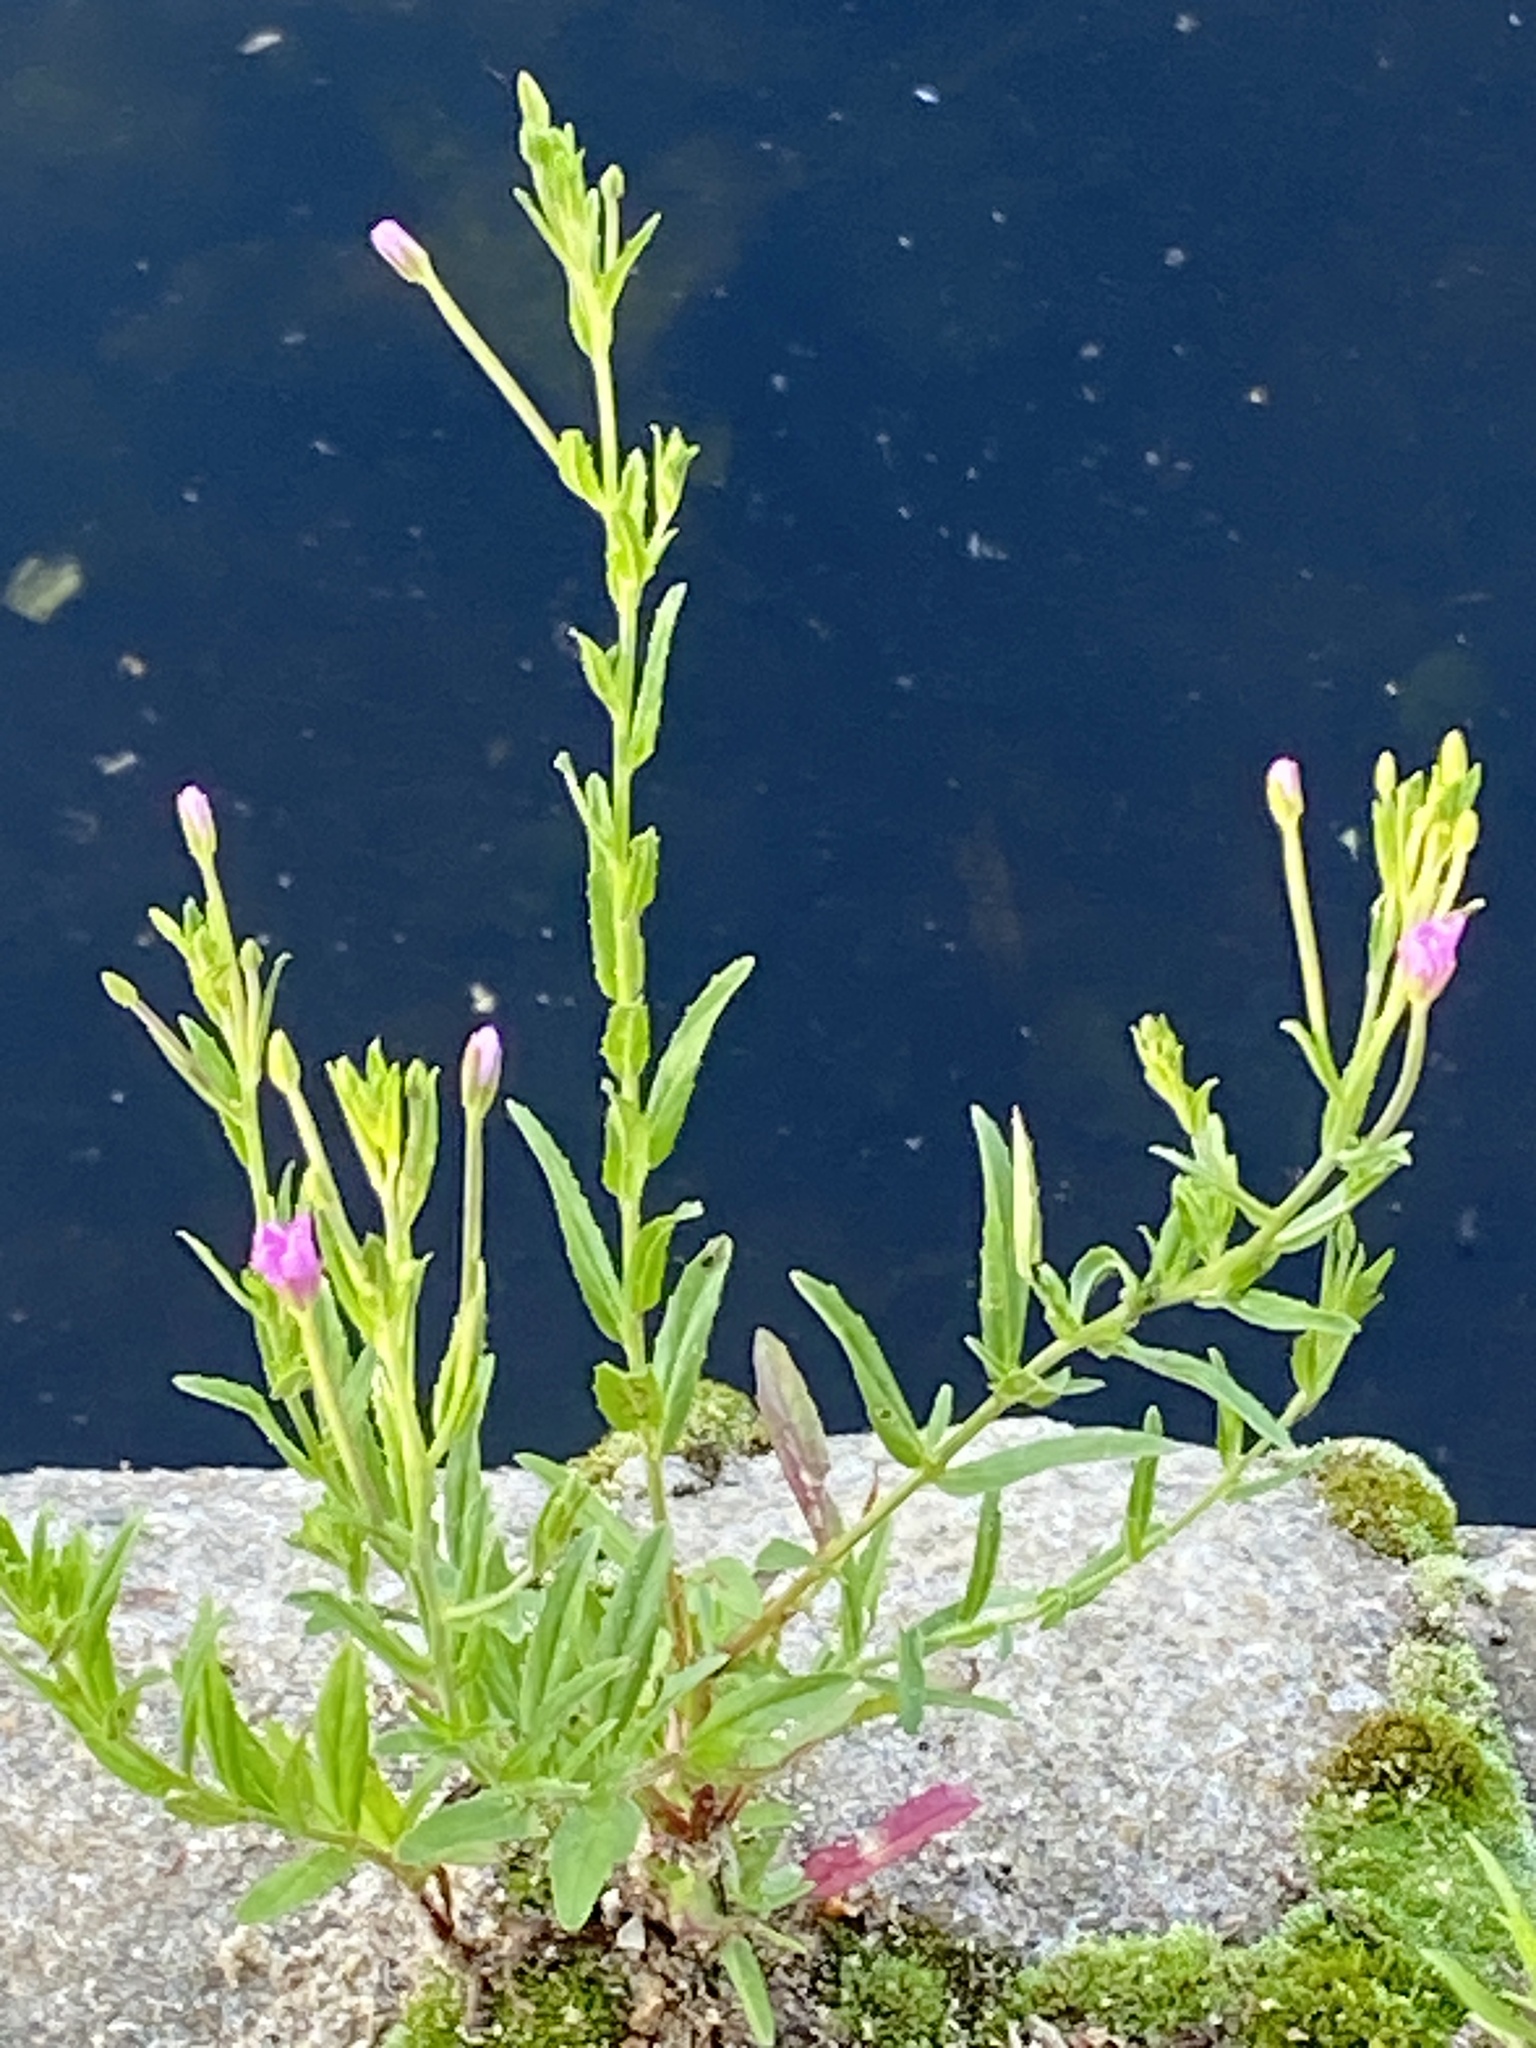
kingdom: Plantae
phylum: Tracheophyta
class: Magnoliopsida
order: Myrtales
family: Onagraceae
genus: Epilobium
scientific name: Epilobium hirsutum
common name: Great willowherb
